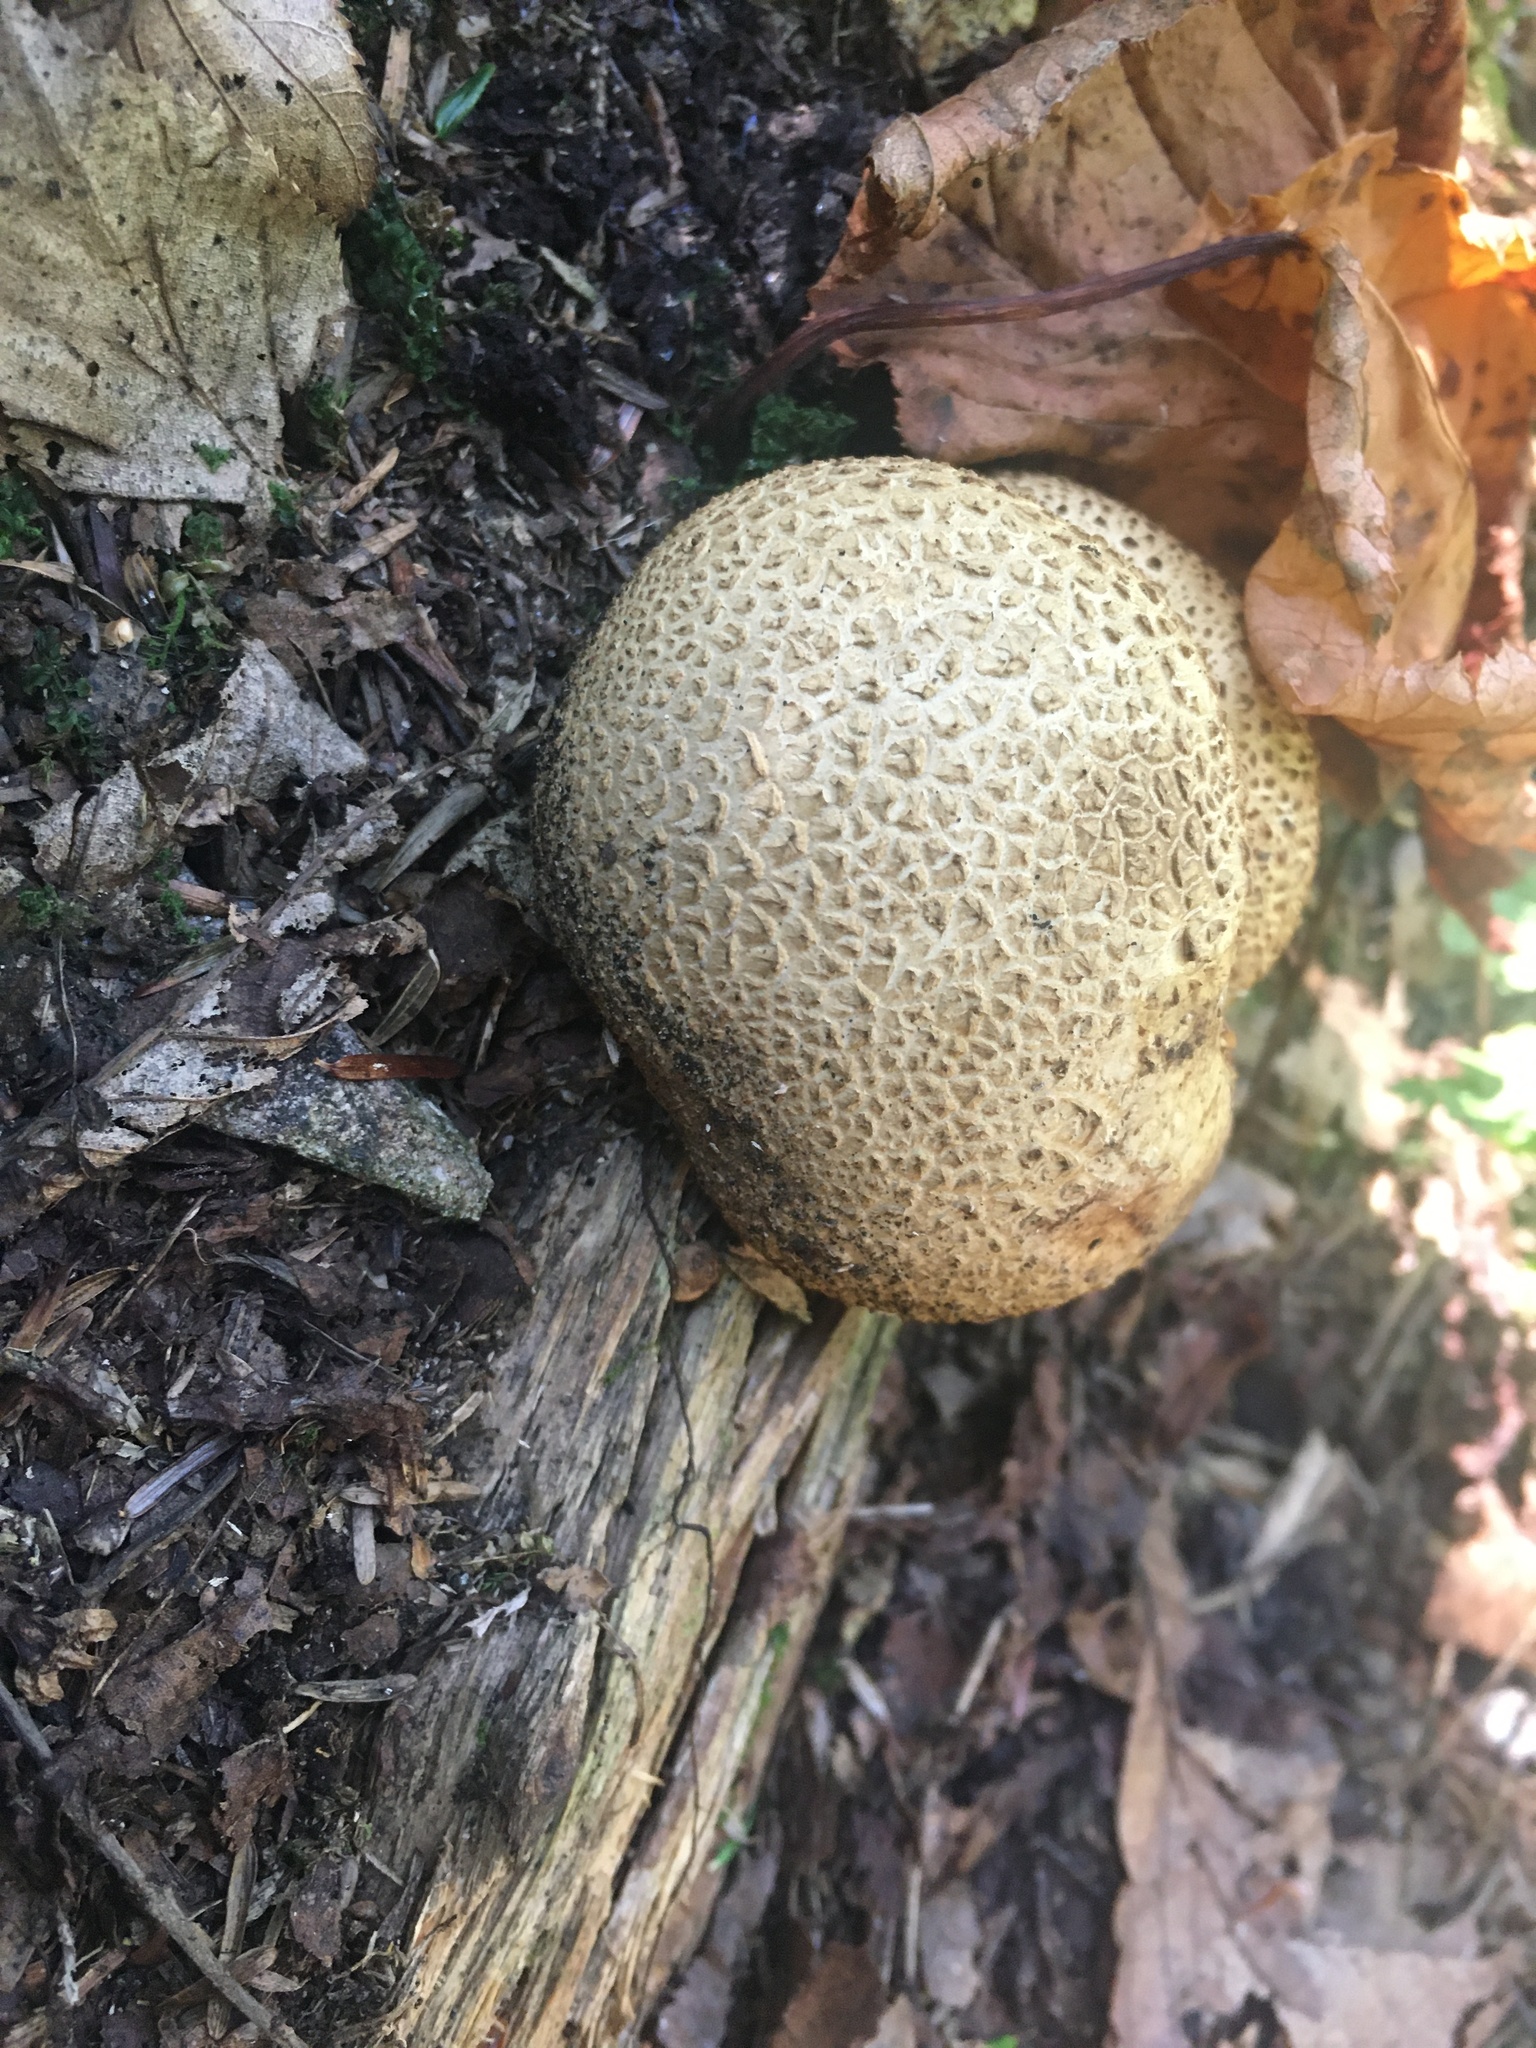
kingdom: Fungi
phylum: Basidiomycota
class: Agaricomycetes
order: Boletales
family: Sclerodermataceae
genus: Scleroderma
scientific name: Scleroderma citrinum
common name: Common earthball
